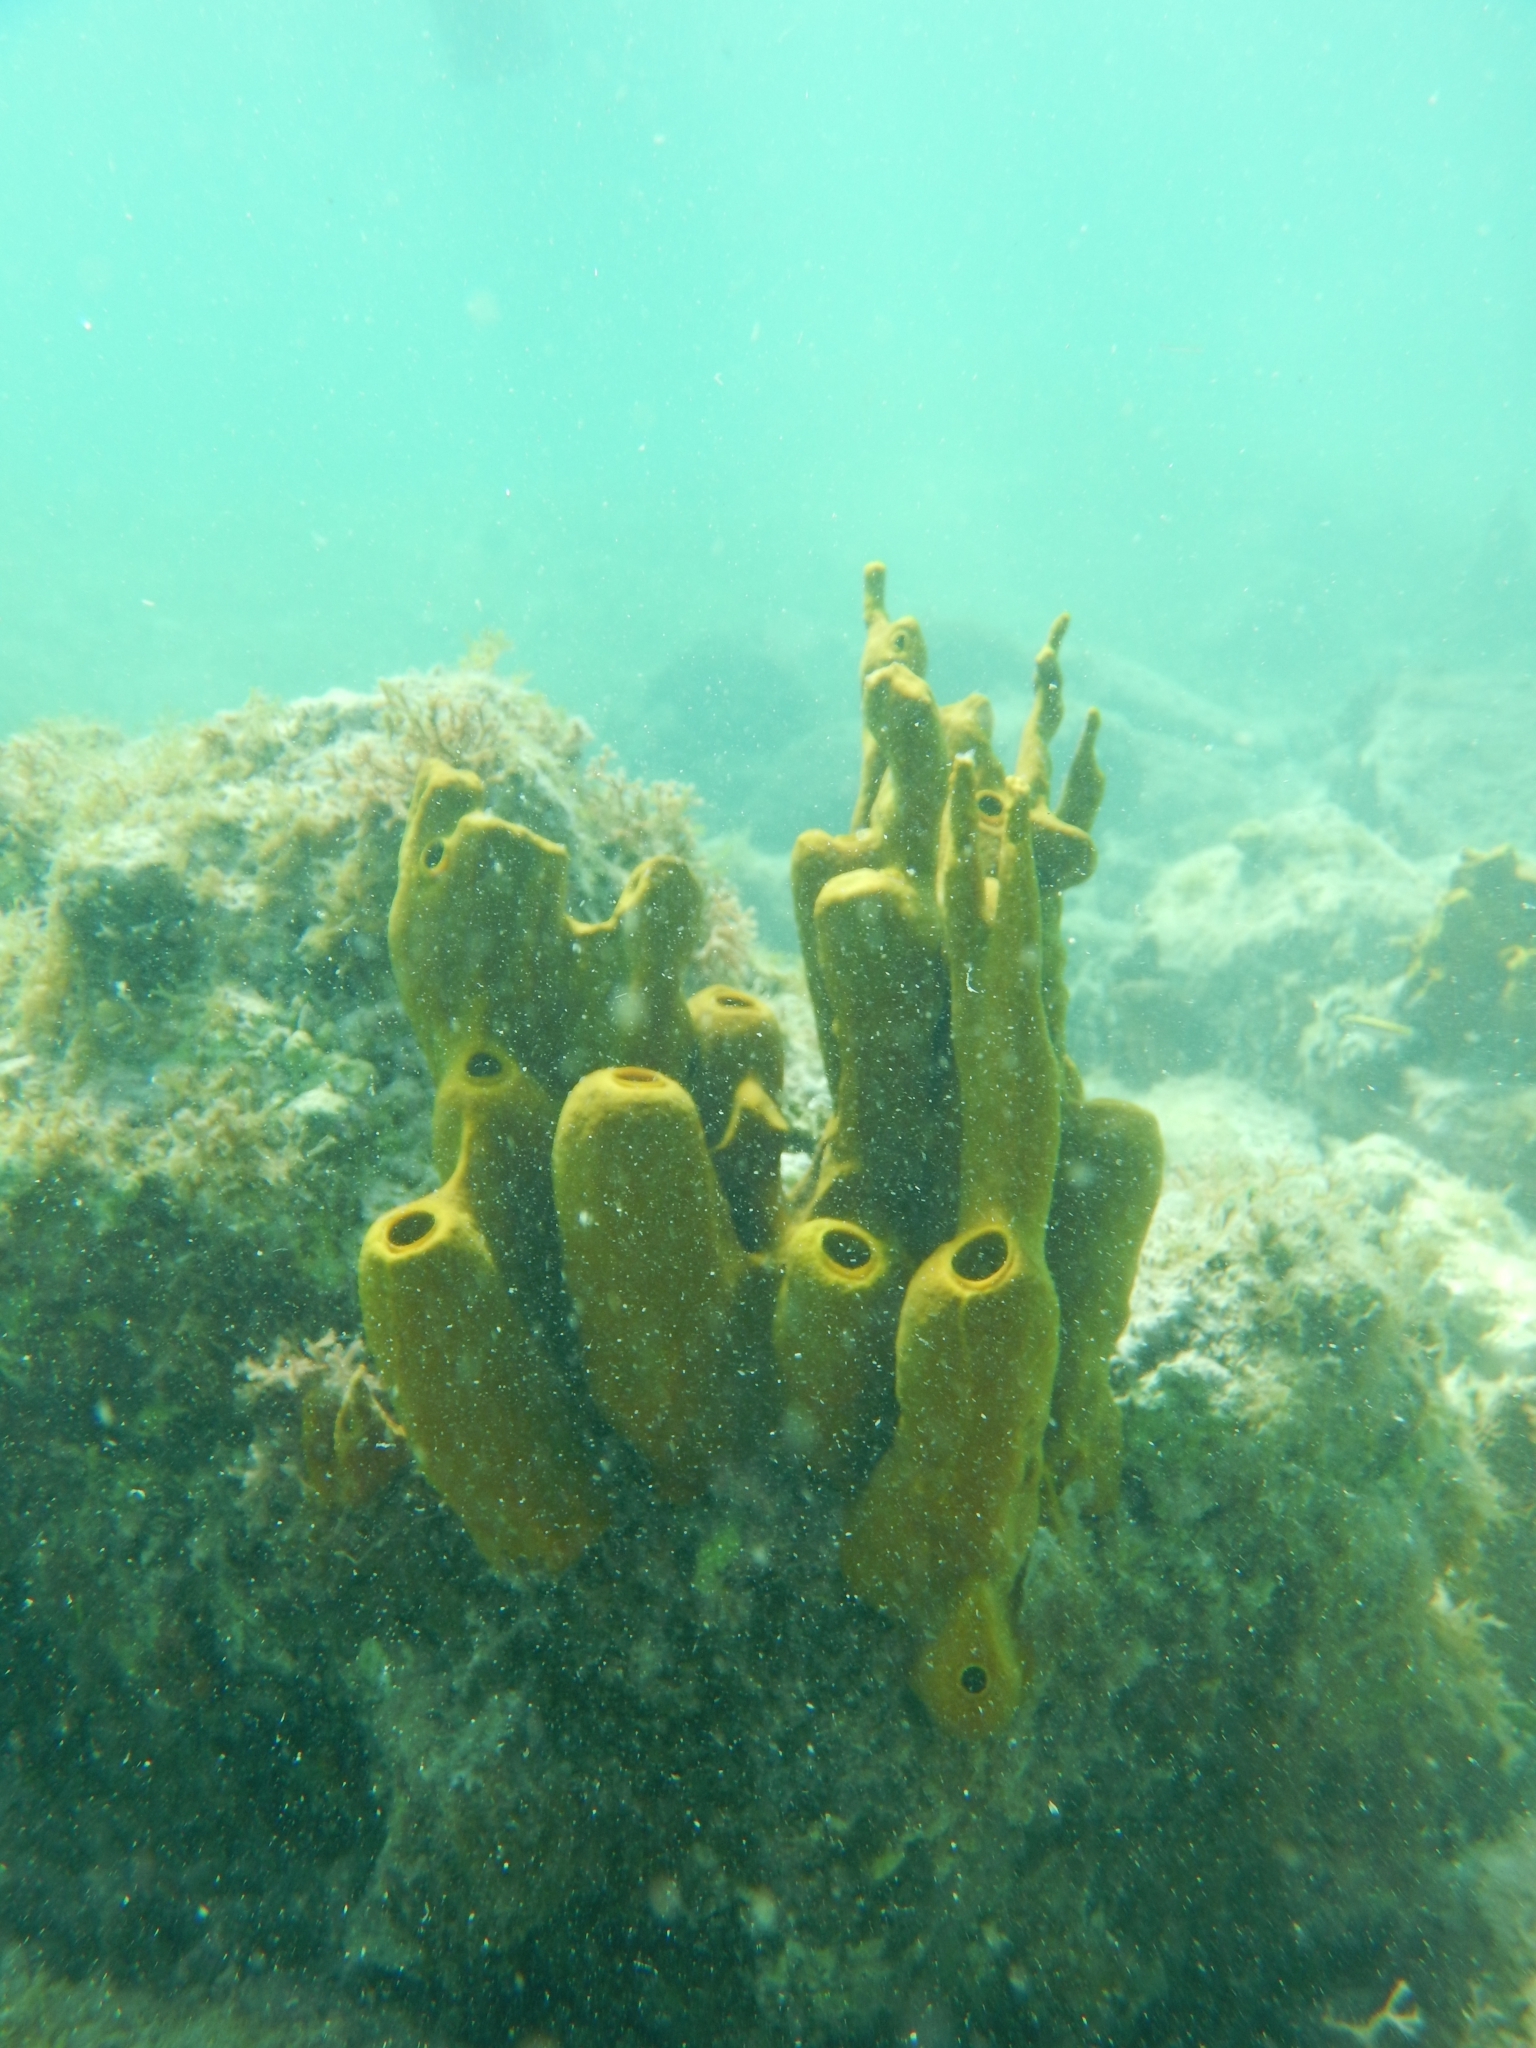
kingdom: Animalia
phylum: Porifera
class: Demospongiae
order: Verongiida
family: Aplysinidae
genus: Aplysina
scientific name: Aplysina fistularis
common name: Candle sponge
